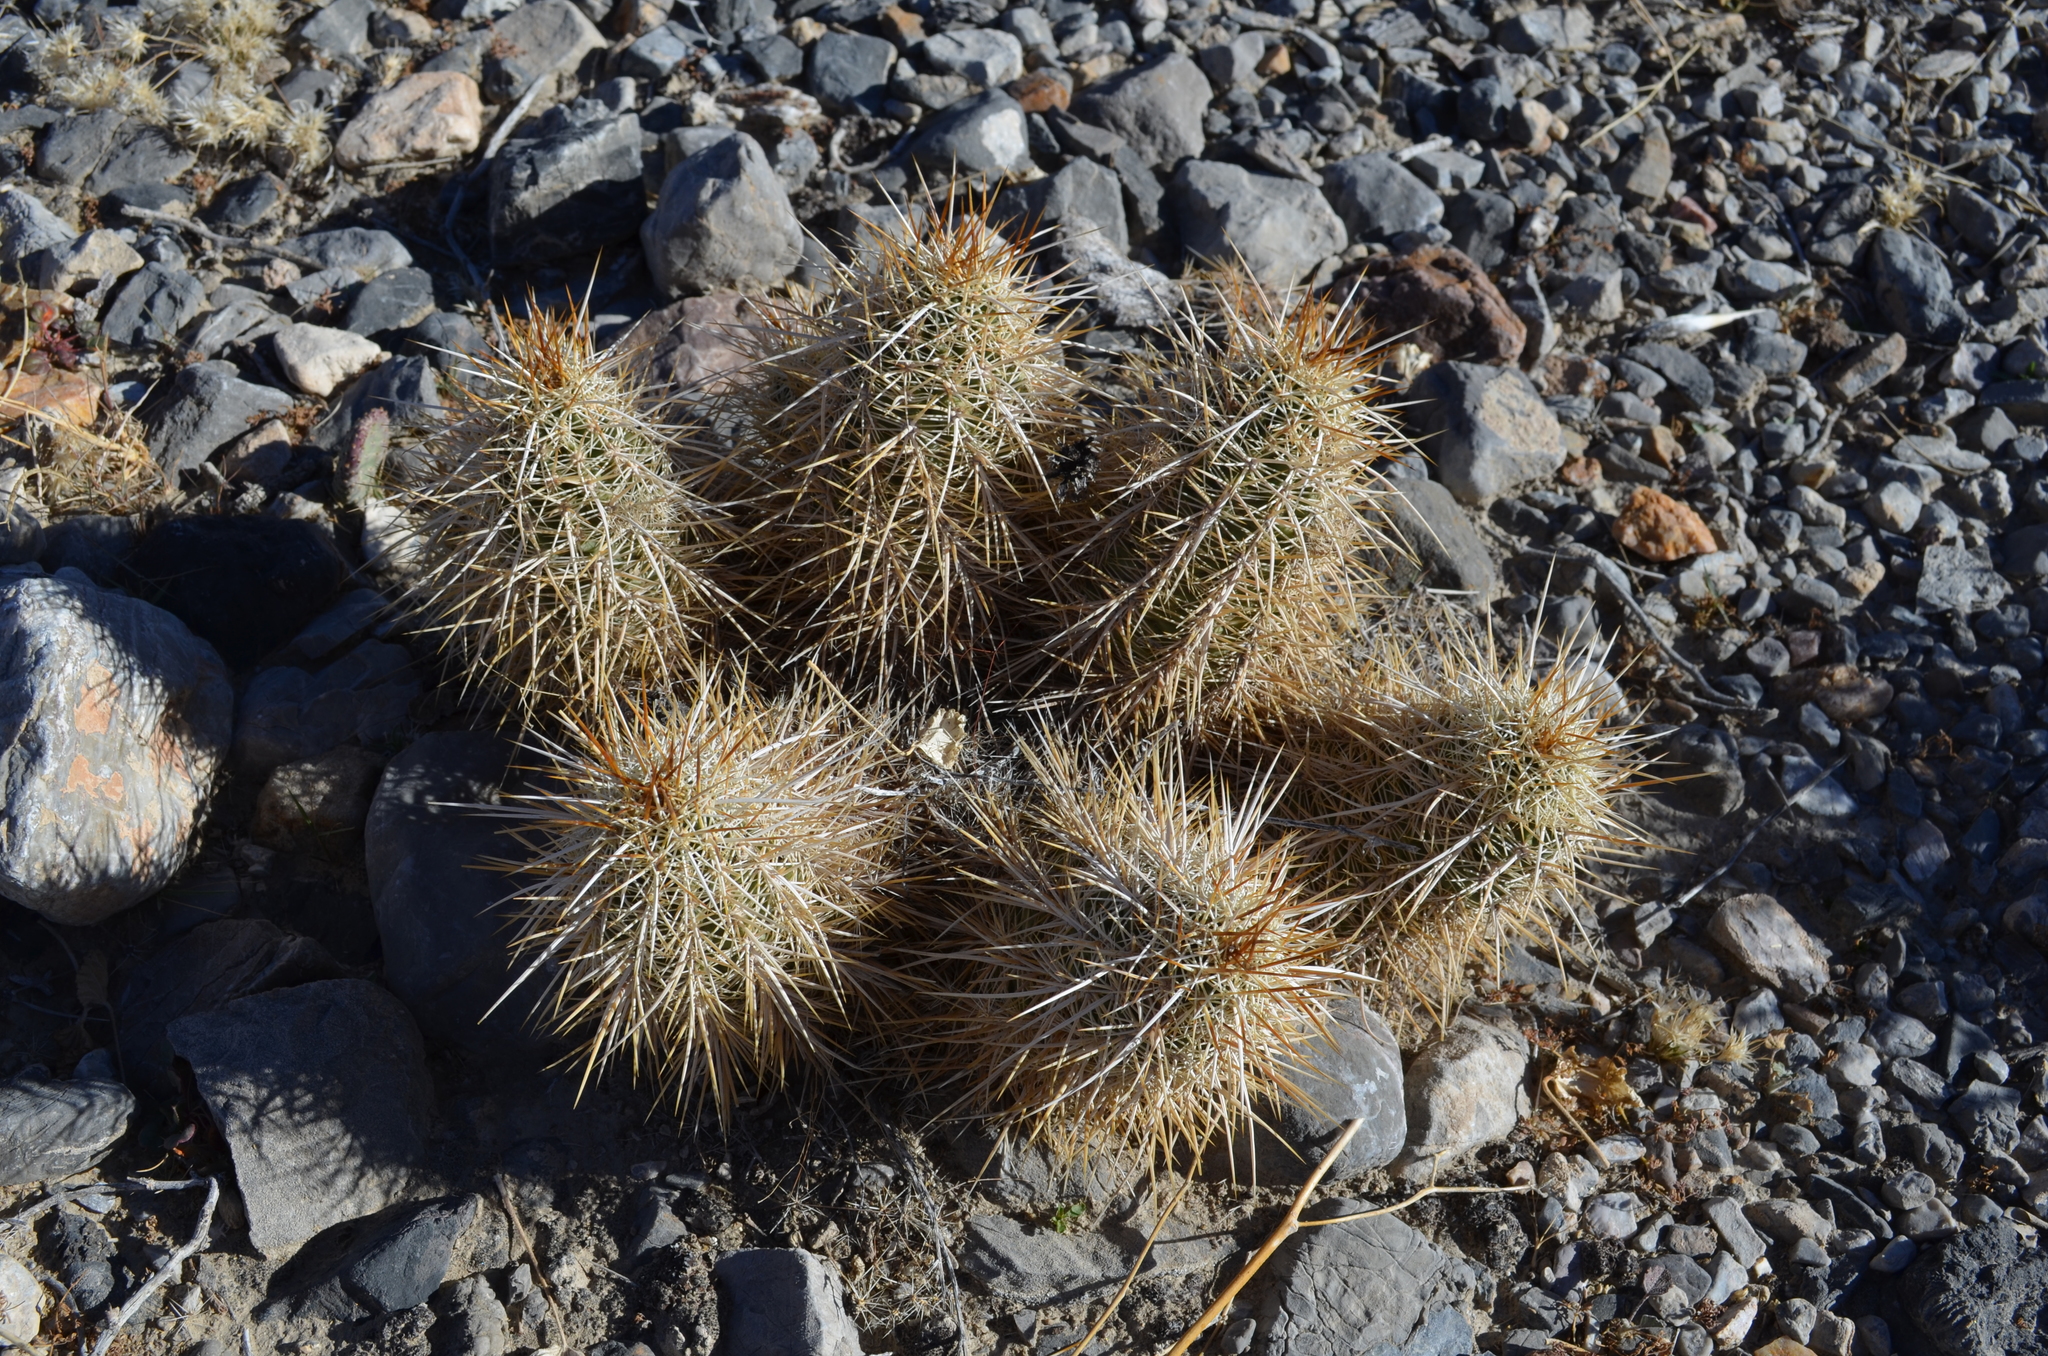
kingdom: Plantae
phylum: Tracheophyta
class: Magnoliopsida
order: Caryophyllales
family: Cactaceae
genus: Echinocereus
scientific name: Echinocereus engelmannii
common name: Engelmann's hedgehog cactus
